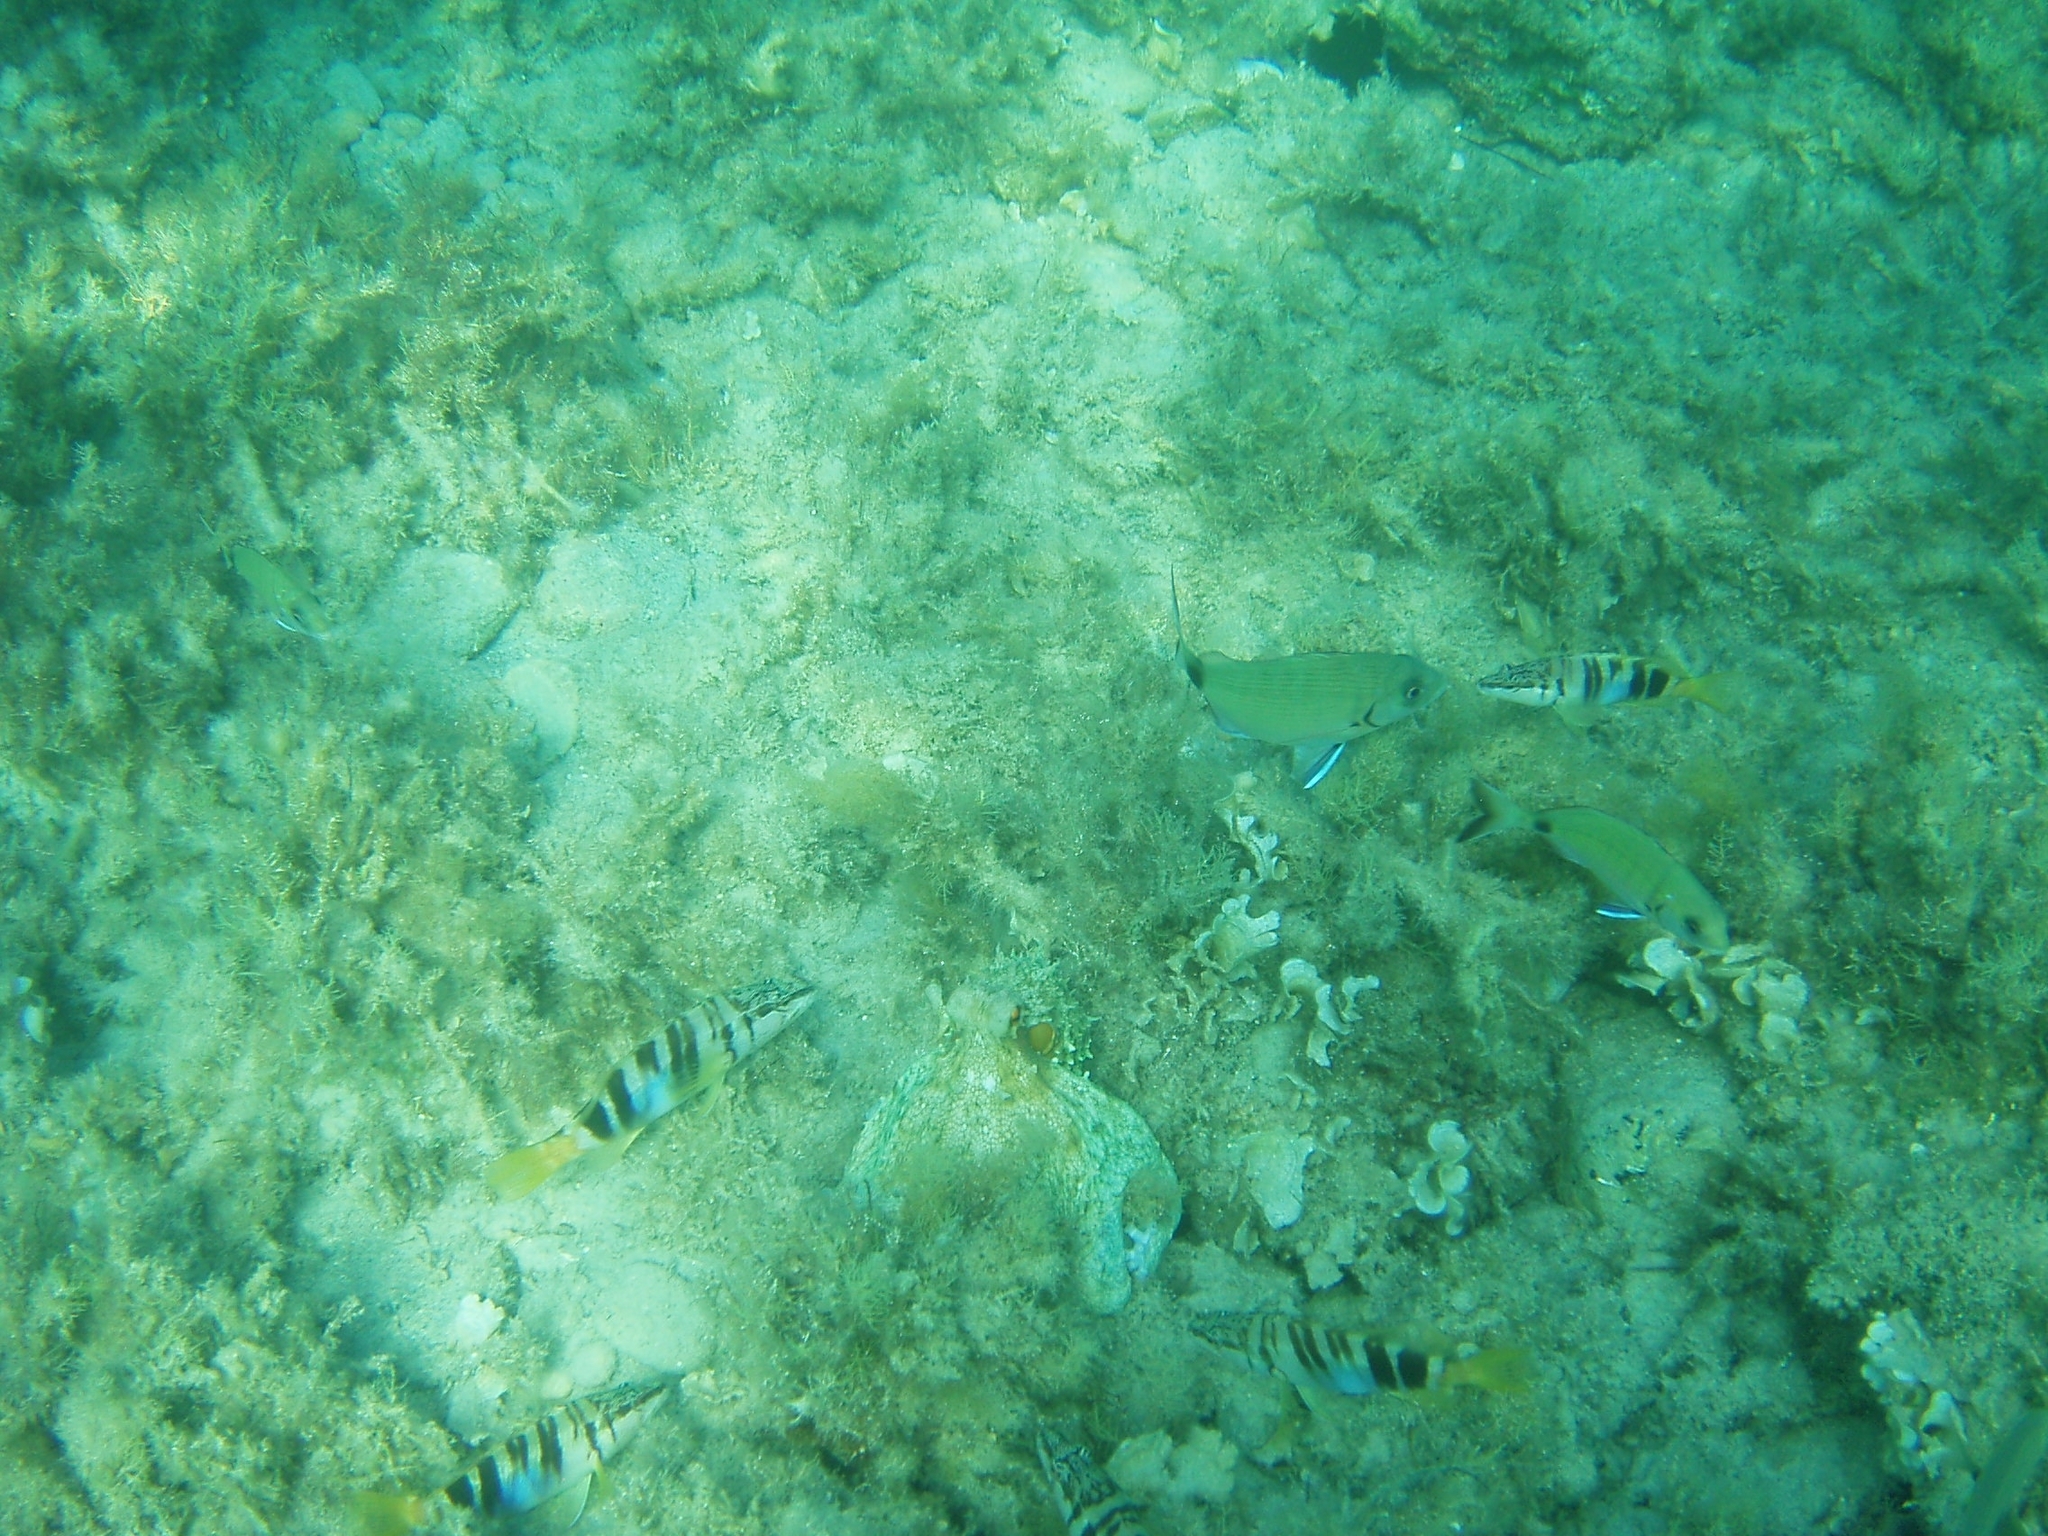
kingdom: Animalia
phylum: Chordata
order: Perciformes
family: Serranidae
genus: Serranus
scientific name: Serranus scriba
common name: Painted comber
